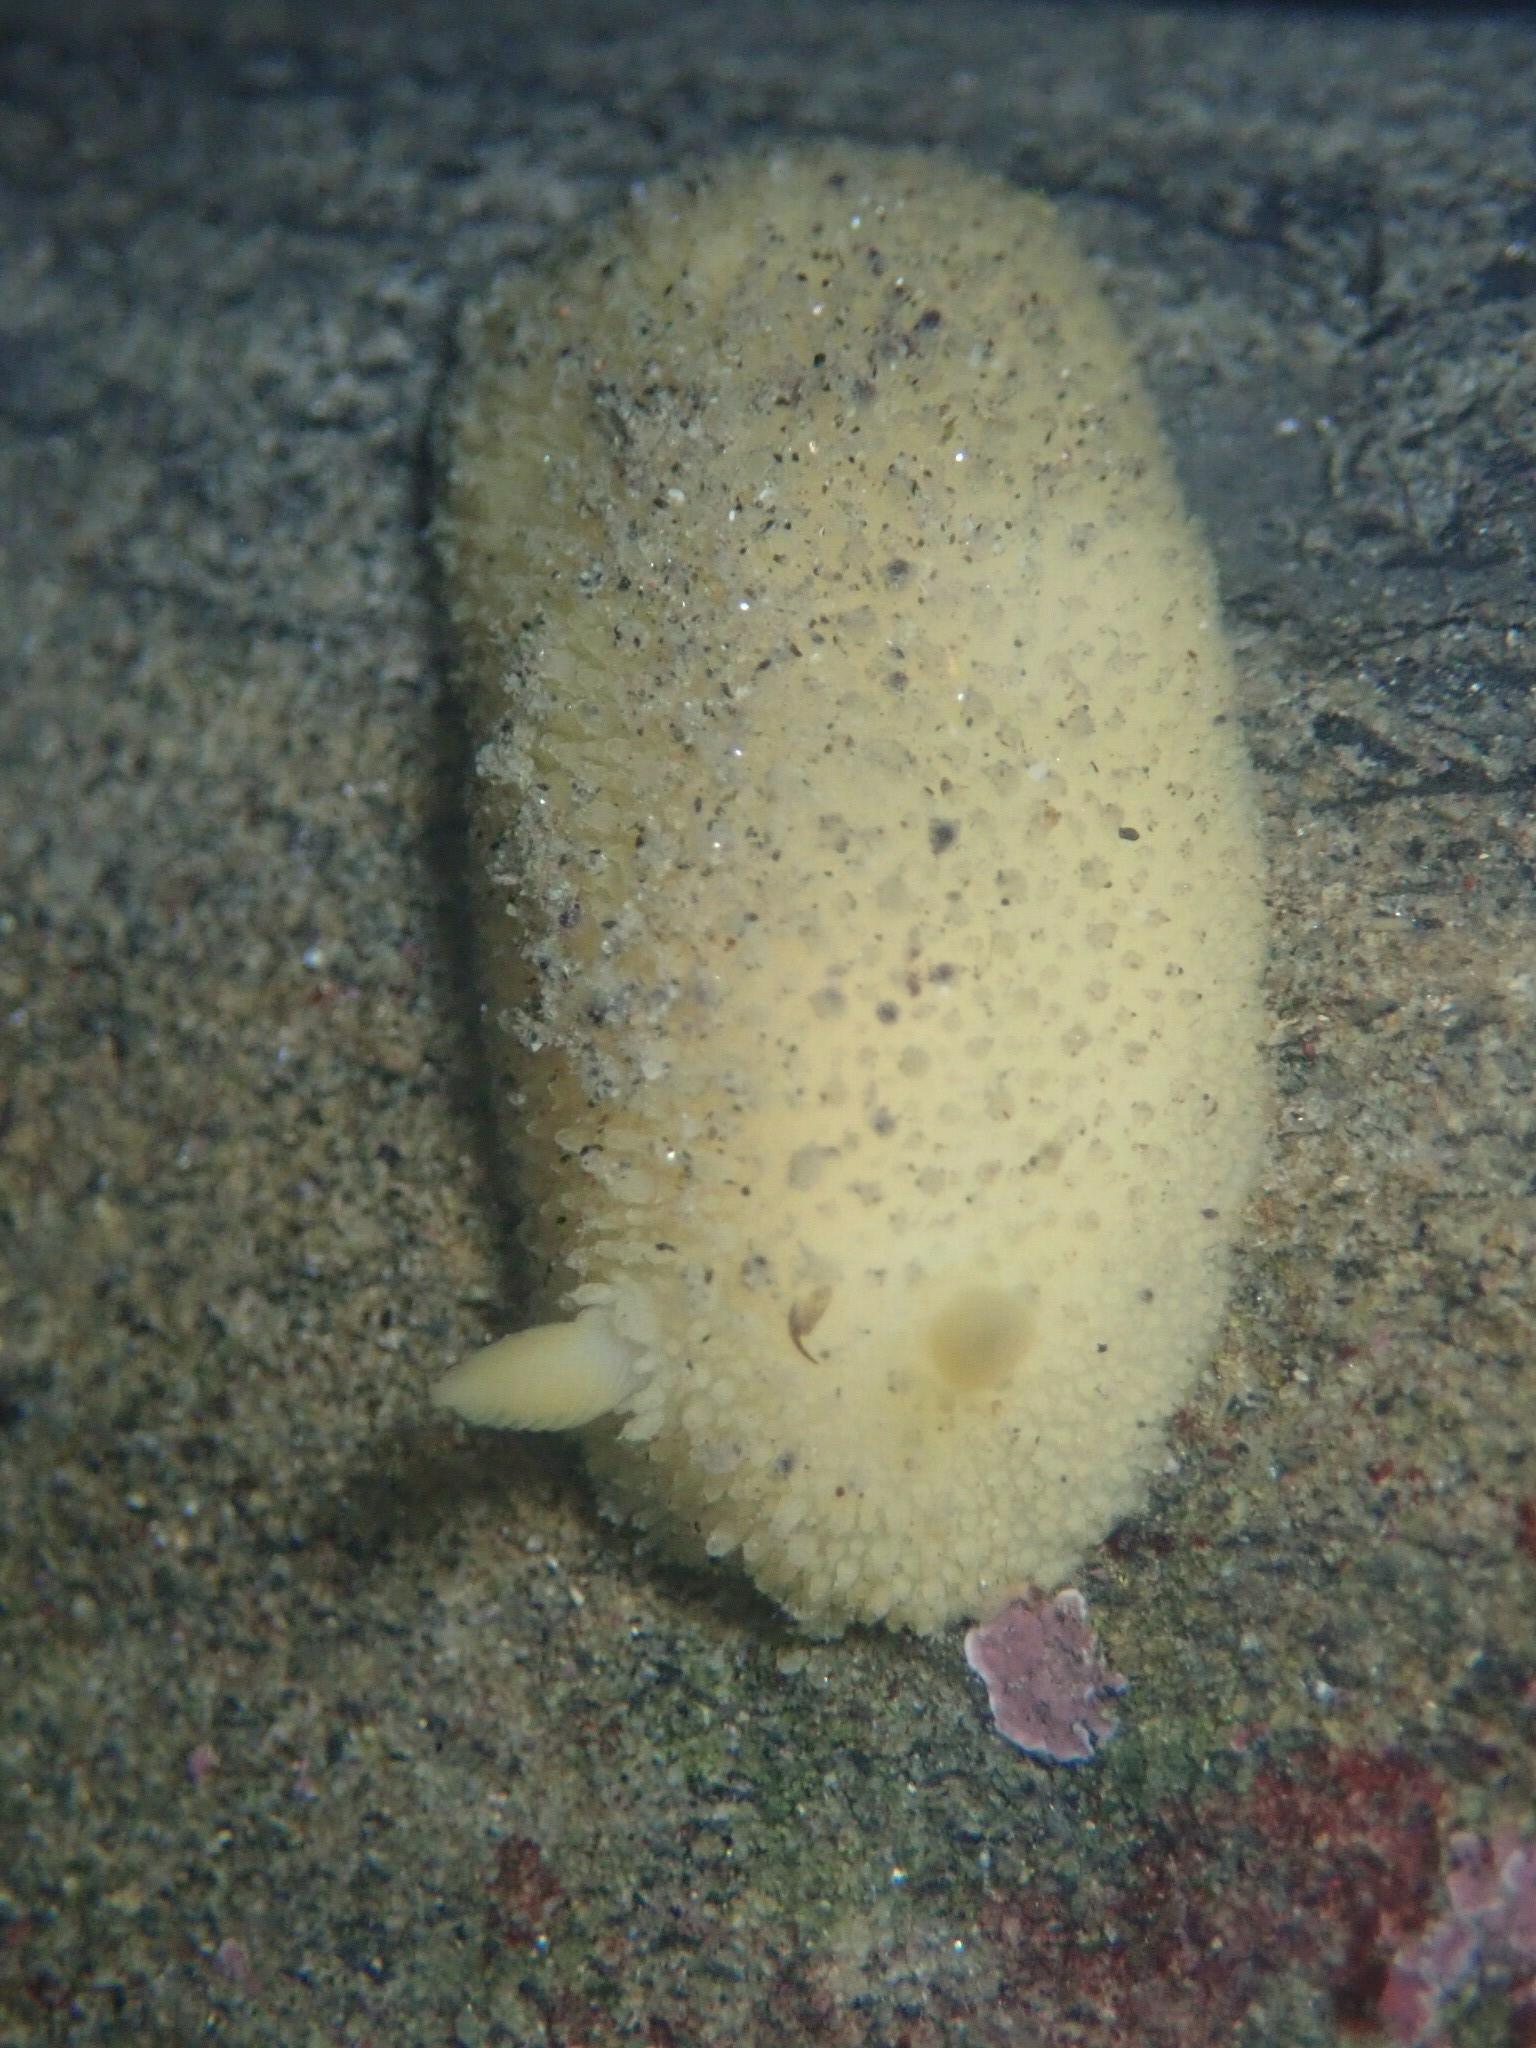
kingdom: Animalia
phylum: Mollusca
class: Gastropoda
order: Nudibranchia
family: Dorididae
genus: Doris
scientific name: Doris montereyensis
